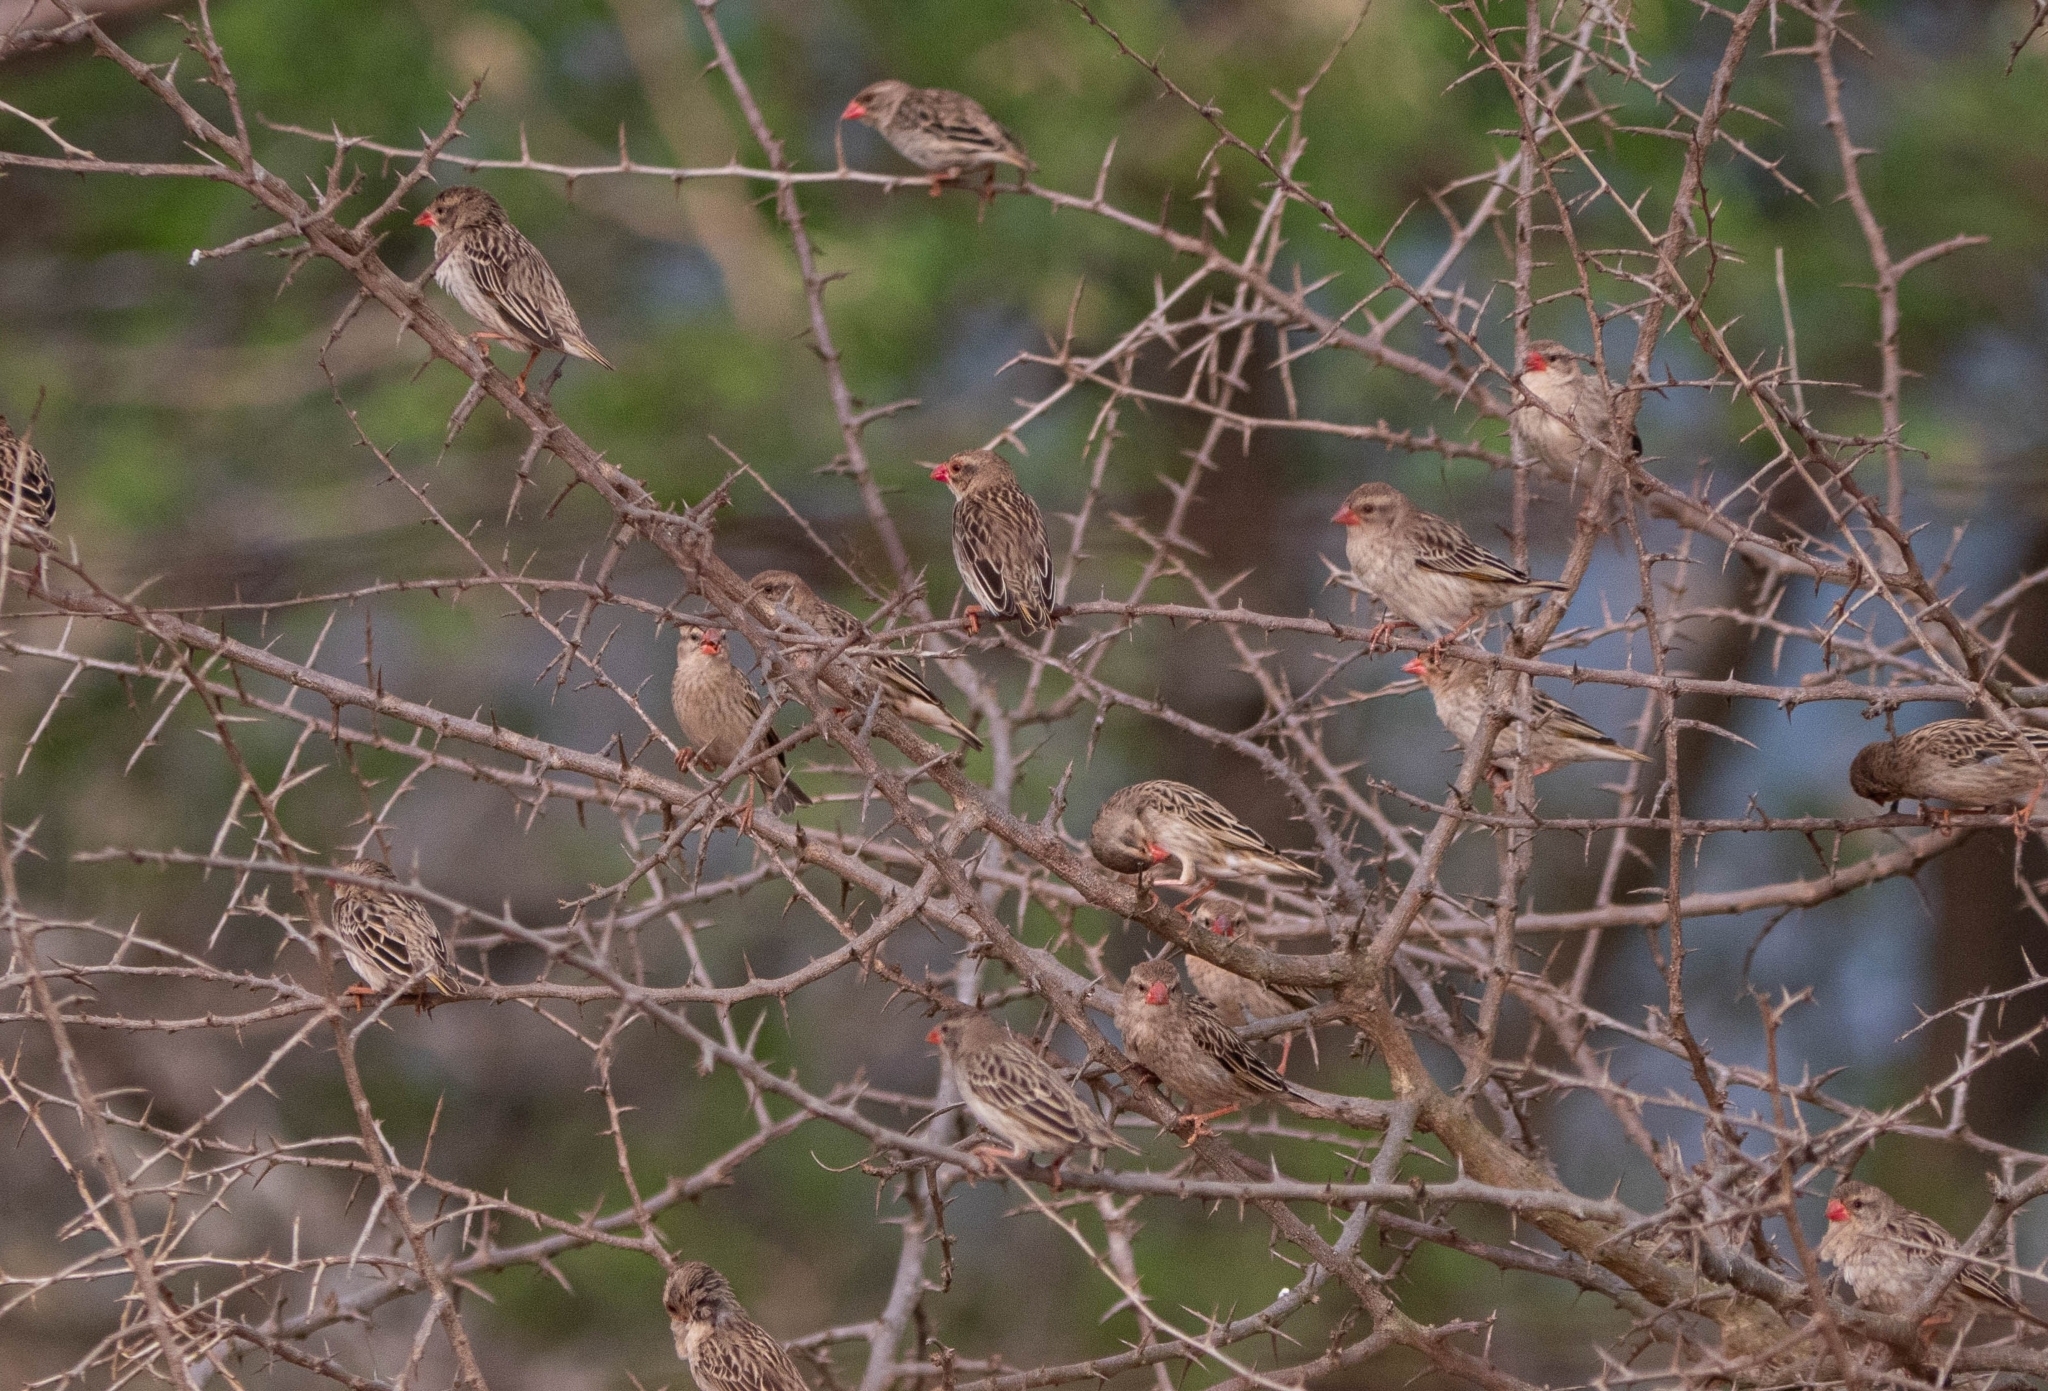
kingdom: Animalia
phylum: Chordata
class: Aves
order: Passeriformes
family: Ploceidae
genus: Quelea
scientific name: Quelea quelea
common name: Red-billed quelea
